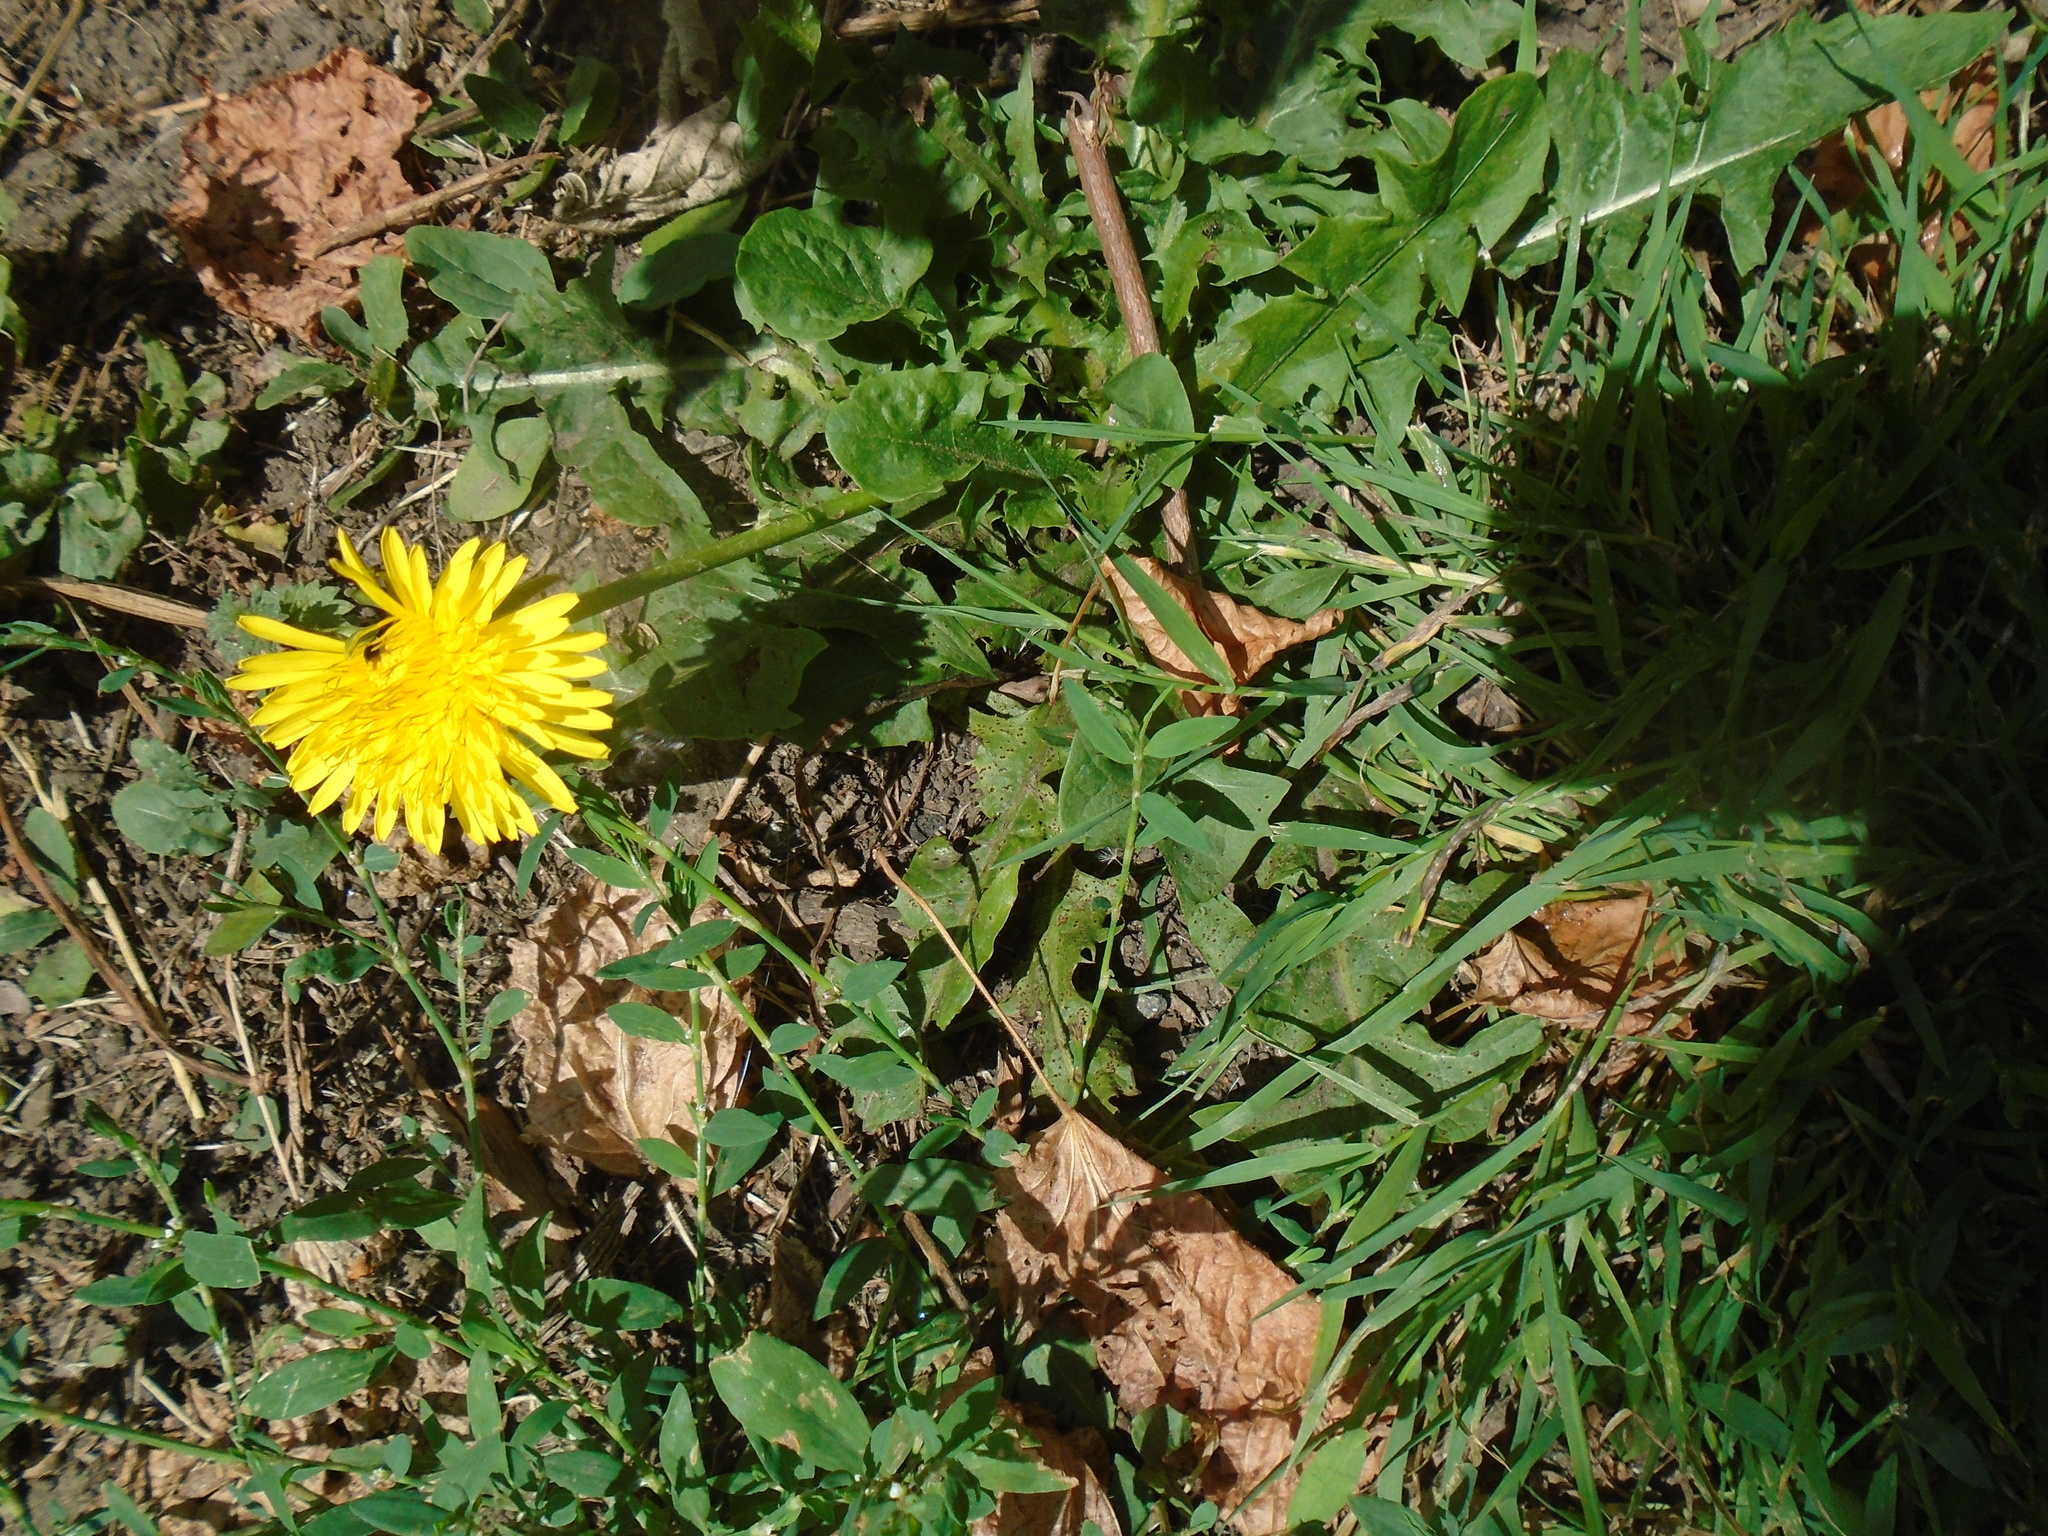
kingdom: Plantae
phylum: Tracheophyta
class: Magnoliopsida
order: Asterales
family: Asteraceae
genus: Taraxacum
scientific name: Taraxacum officinale
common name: Common dandelion
